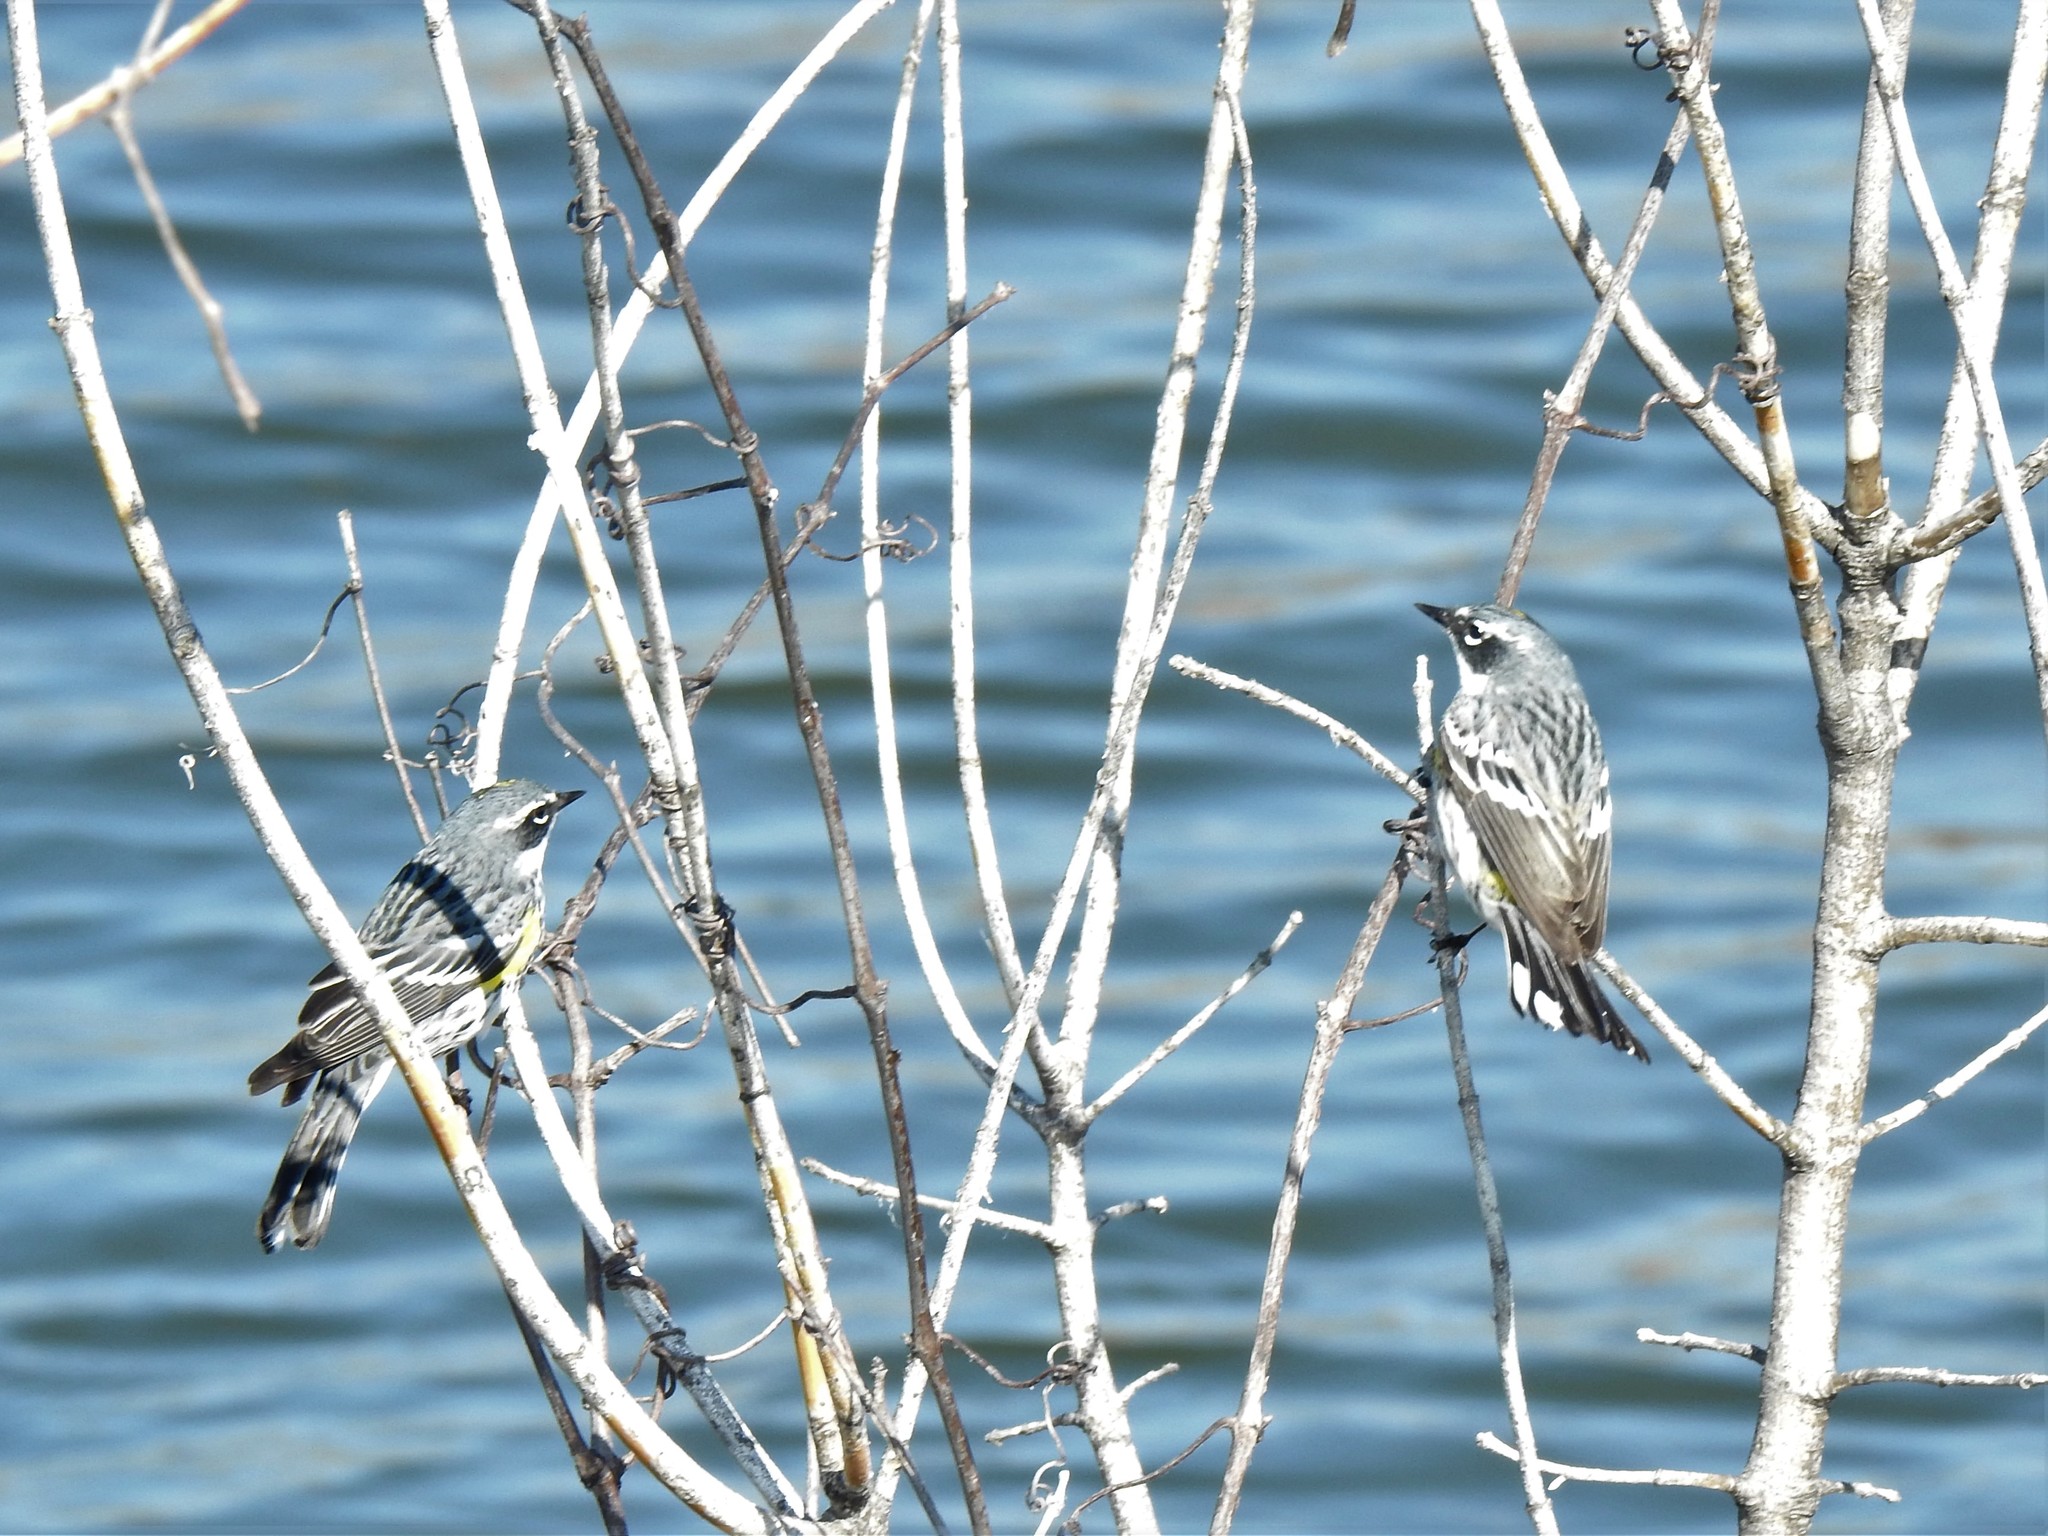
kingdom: Animalia
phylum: Chordata
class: Aves
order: Passeriformes
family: Parulidae
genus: Setophaga
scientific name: Setophaga coronata
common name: Myrtle warbler
